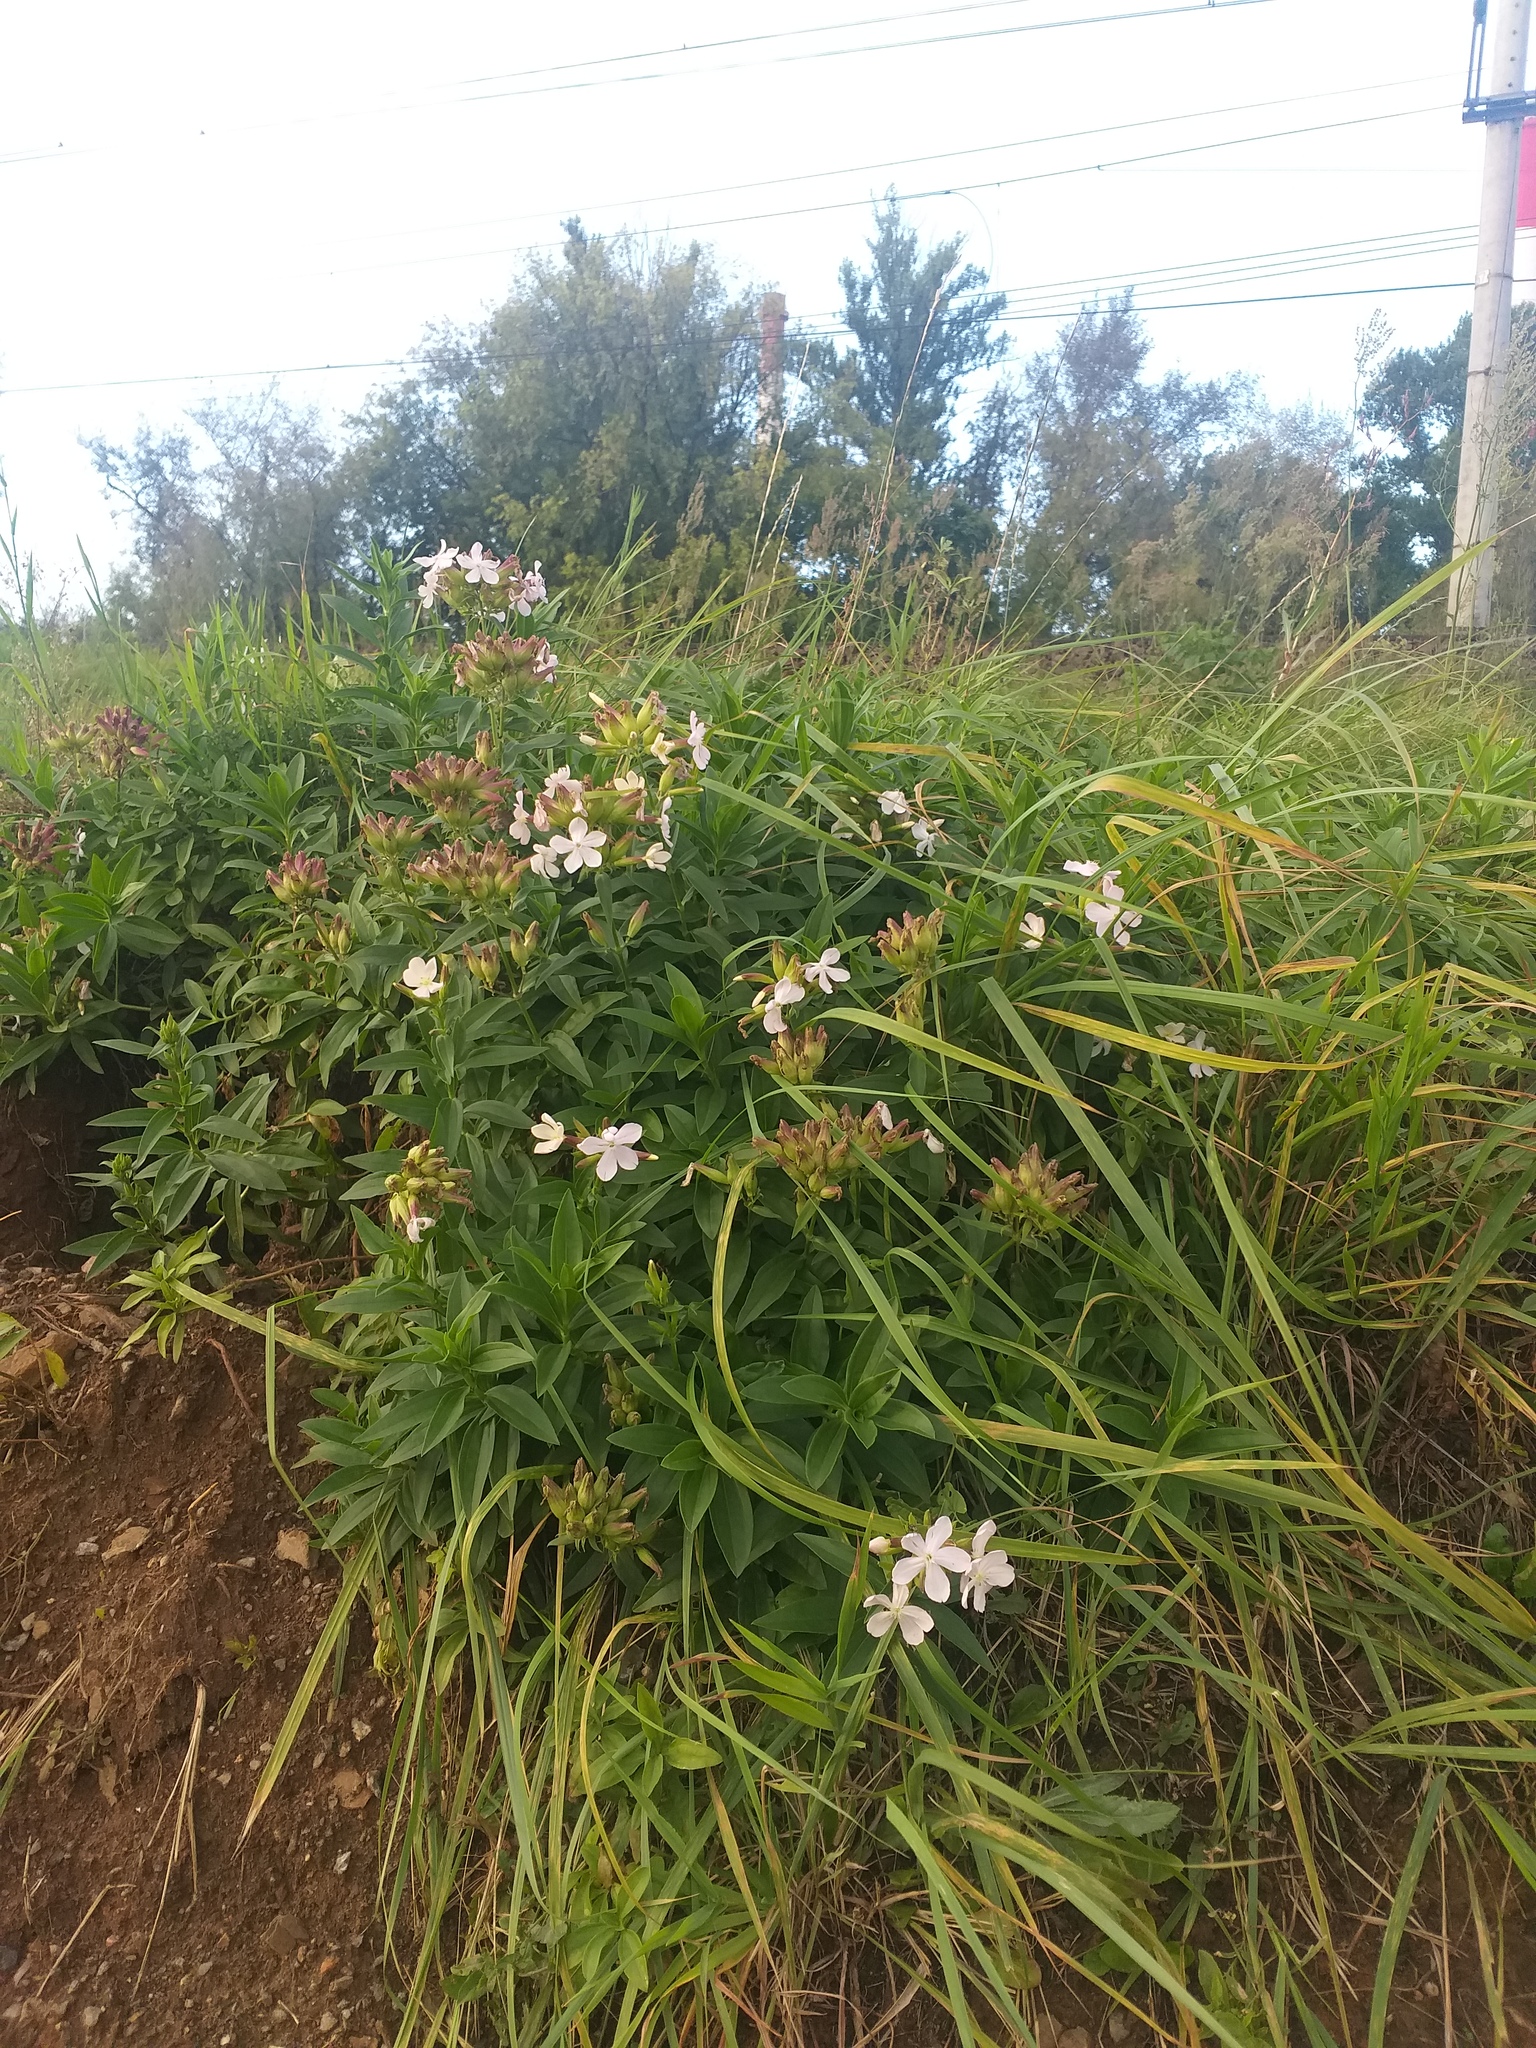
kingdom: Plantae
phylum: Tracheophyta
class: Magnoliopsida
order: Caryophyllales
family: Caryophyllaceae
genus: Saponaria
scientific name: Saponaria officinalis
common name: Soapwort
